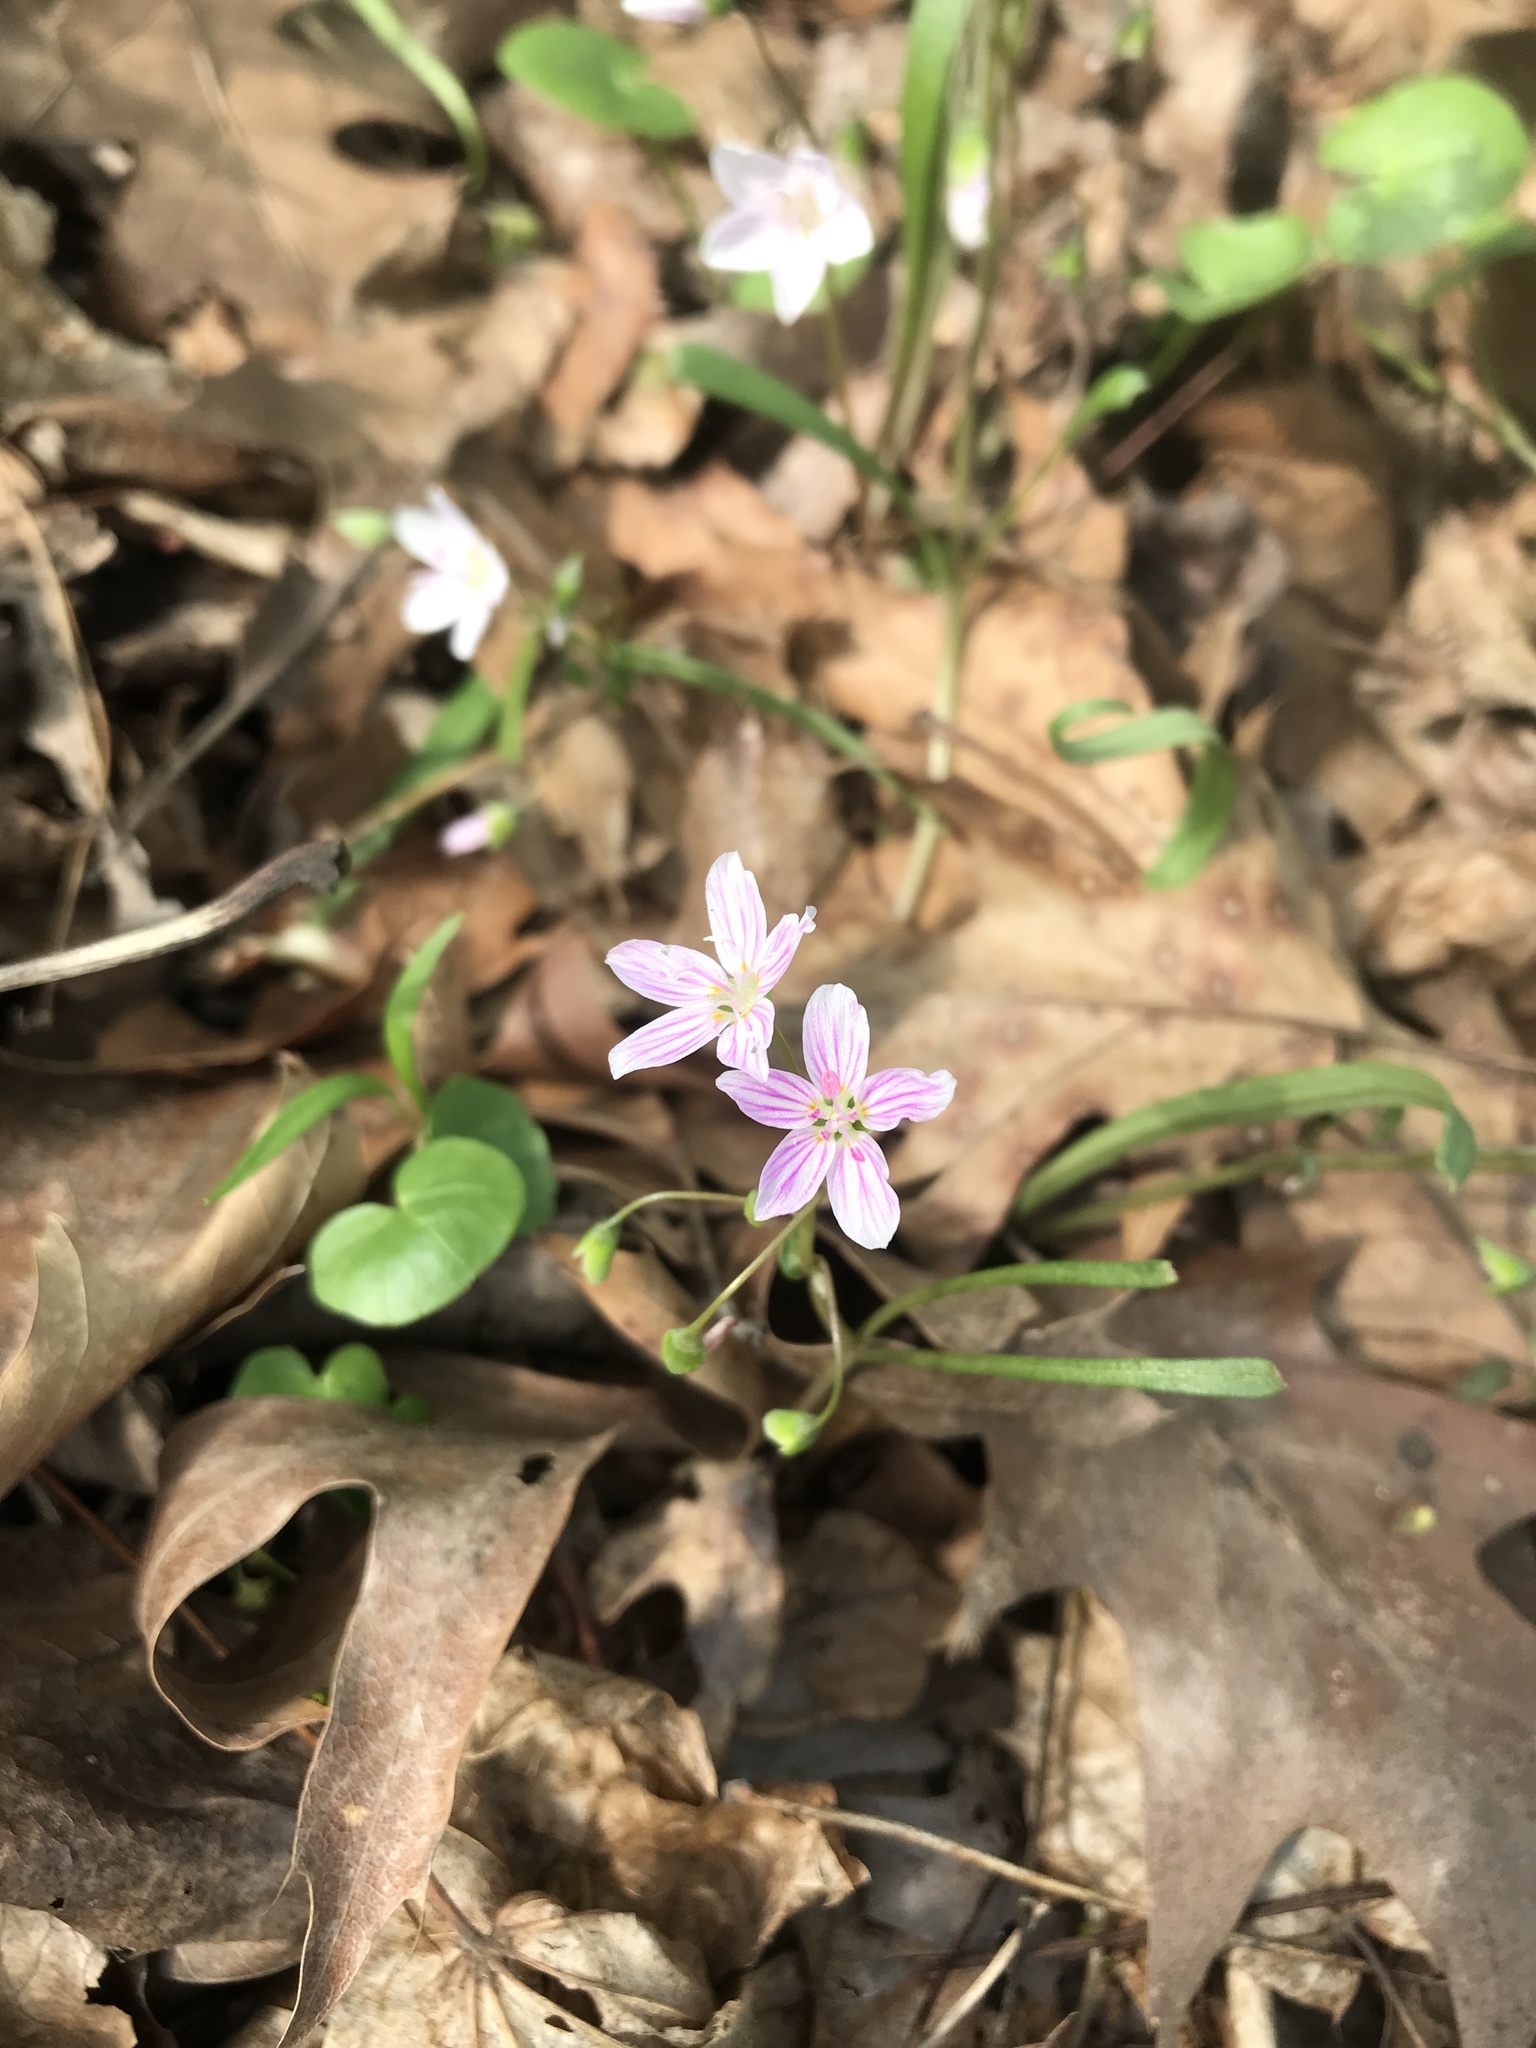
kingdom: Plantae
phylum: Tracheophyta
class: Magnoliopsida
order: Caryophyllales
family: Montiaceae
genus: Claytonia
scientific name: Claytonia virginica
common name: Virginia springbeauty
